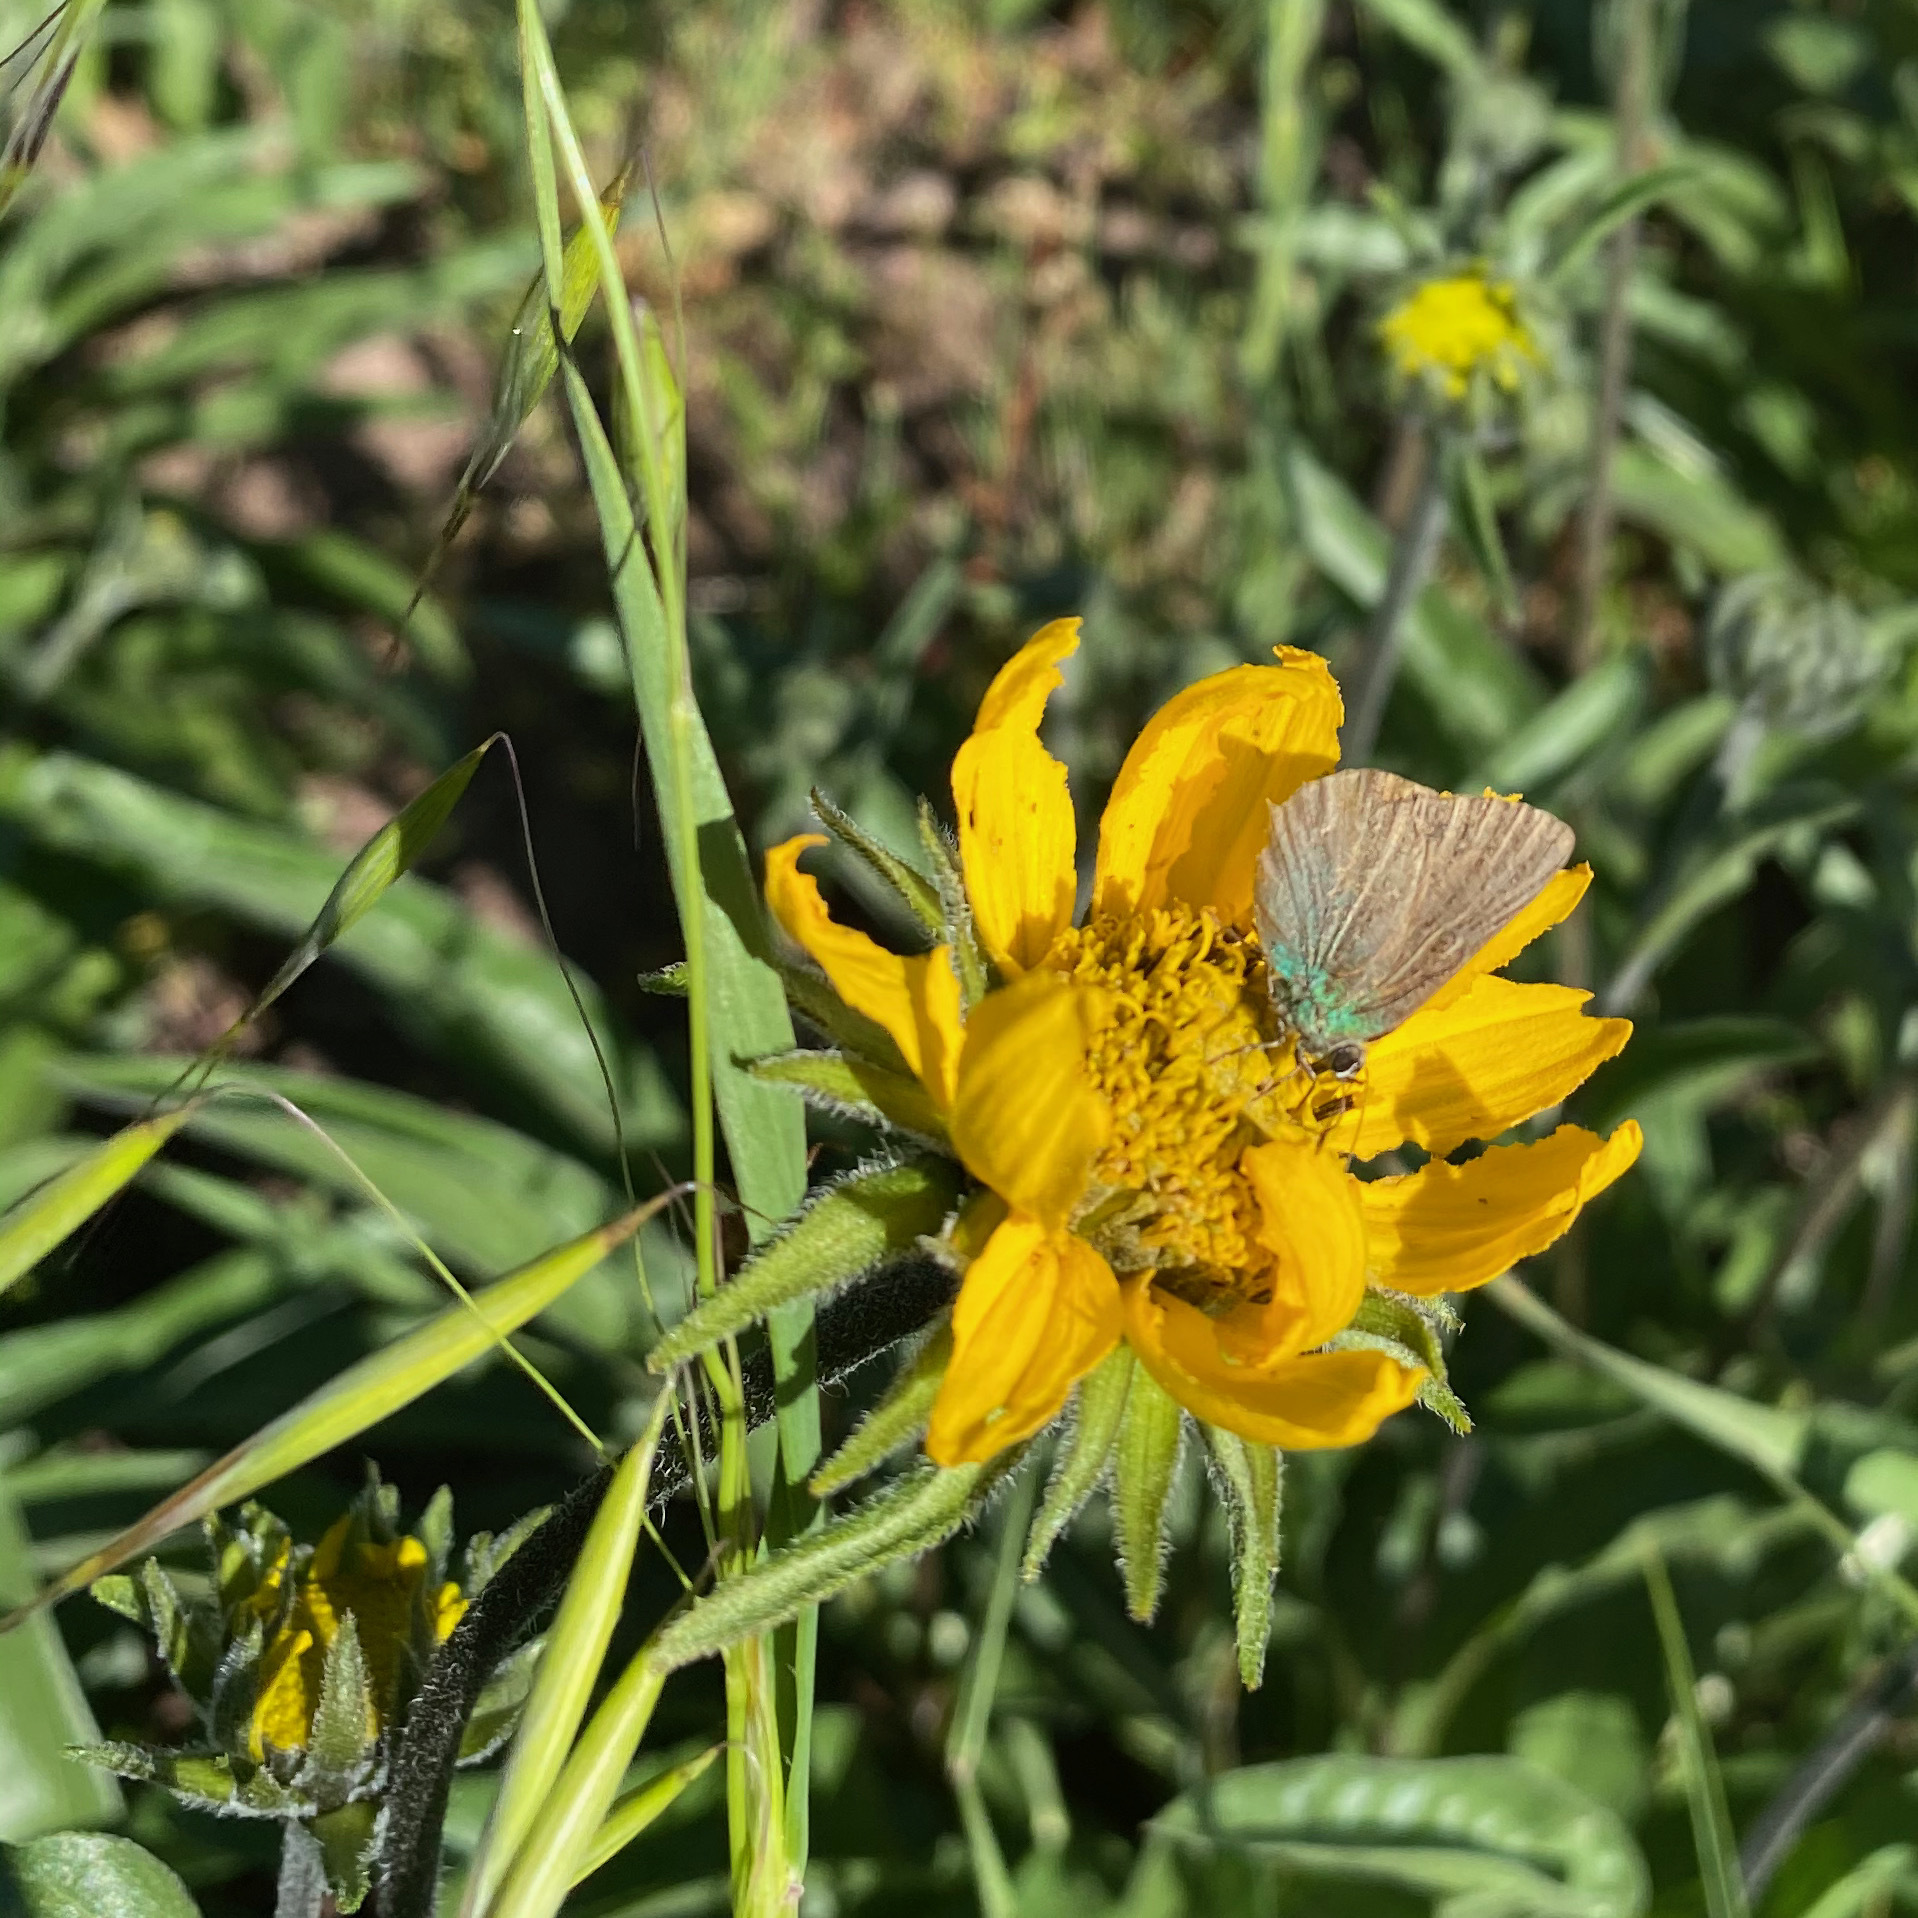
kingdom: Animalia
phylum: Arthropoda
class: Insecta
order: Lepidoptera
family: Lycaenidae
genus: Callophrys
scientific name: Callophrys dumetorum
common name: Bramble hairstreak
